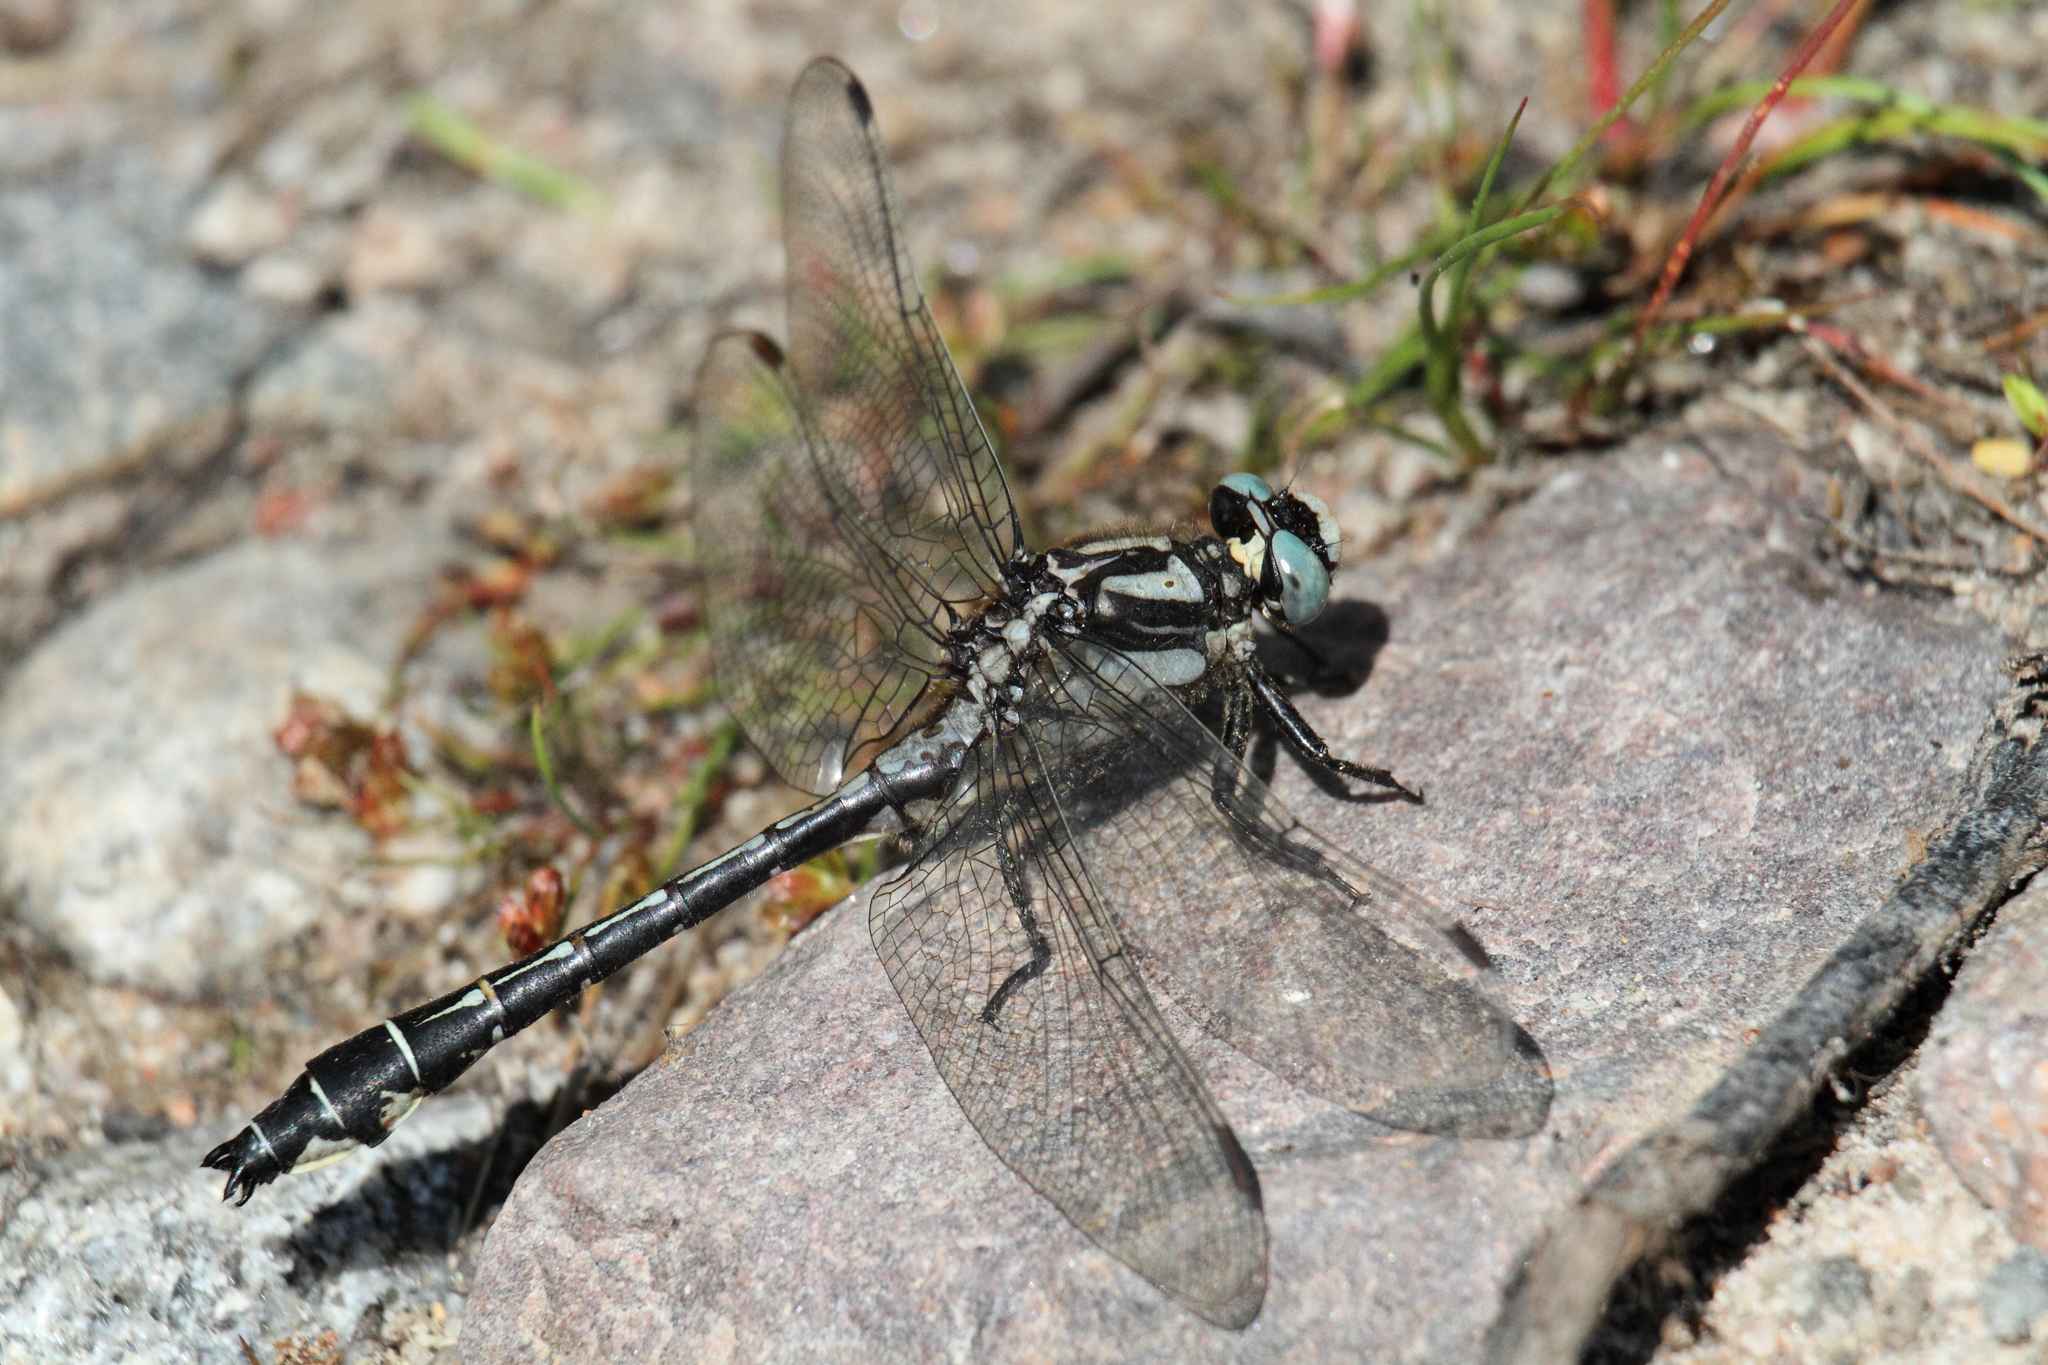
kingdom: Animalia
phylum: Arthropoda
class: Insecta
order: Odonata
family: Gomphidae
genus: Gomphus
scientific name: Gomphus vulgatissimus
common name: Club-tailed dragonfly
